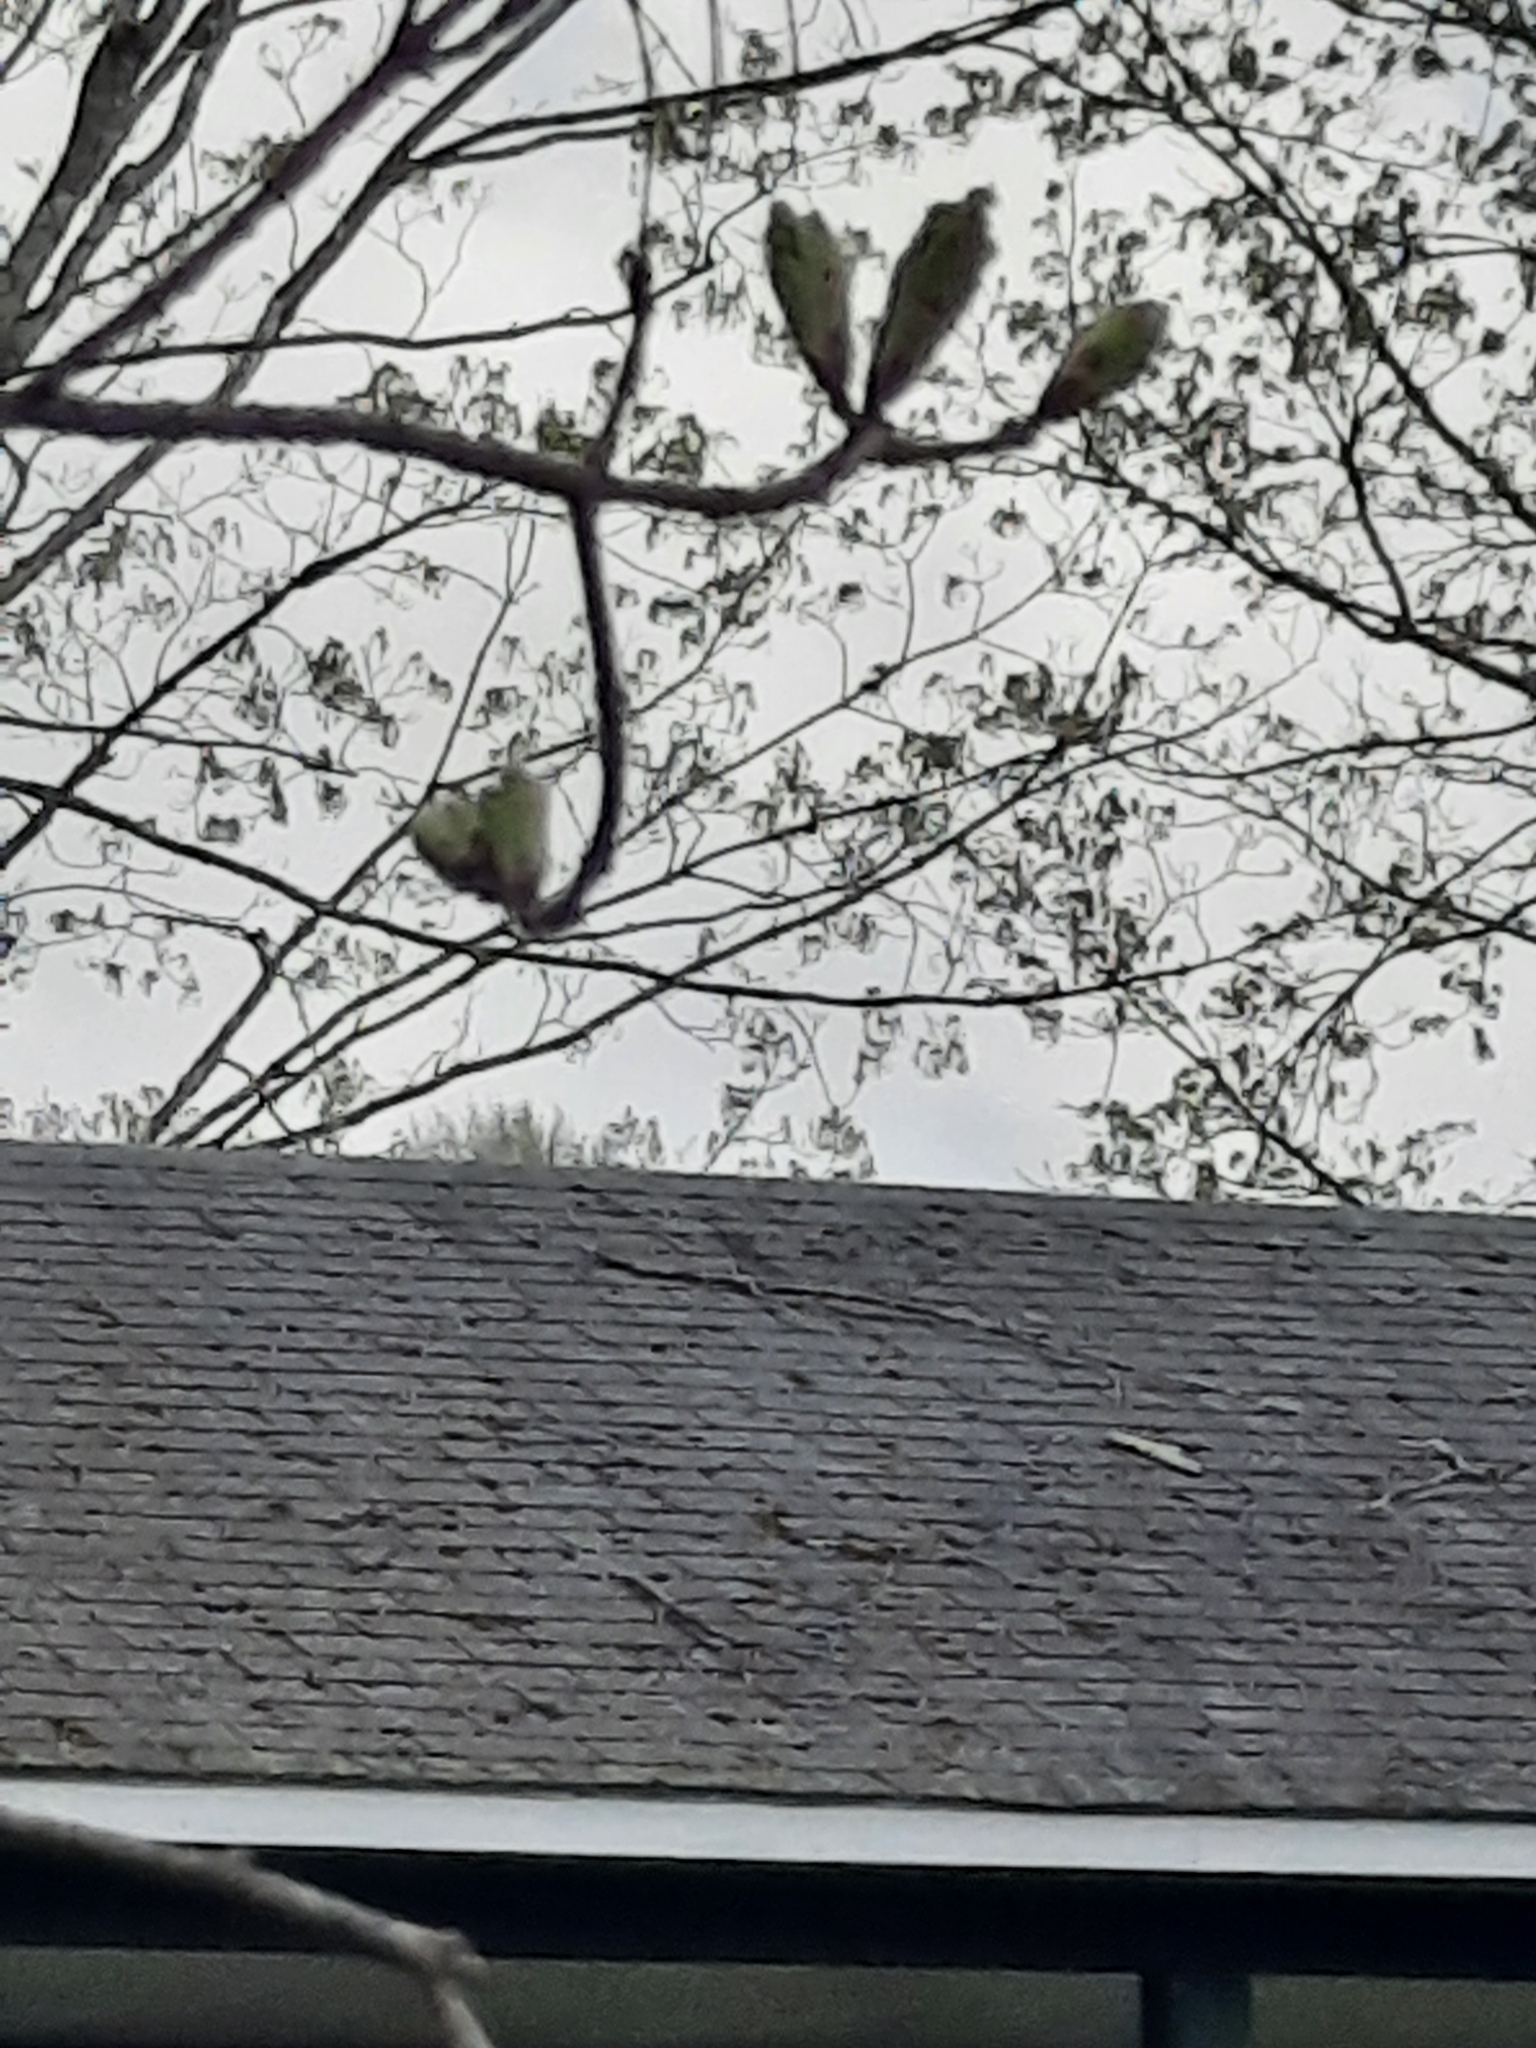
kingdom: Plantae
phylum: Tracheophyta
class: Magnoliopsida
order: Sapindales
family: Sapindaceae
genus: Acer
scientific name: Acer saccharum
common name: Sugar maple
